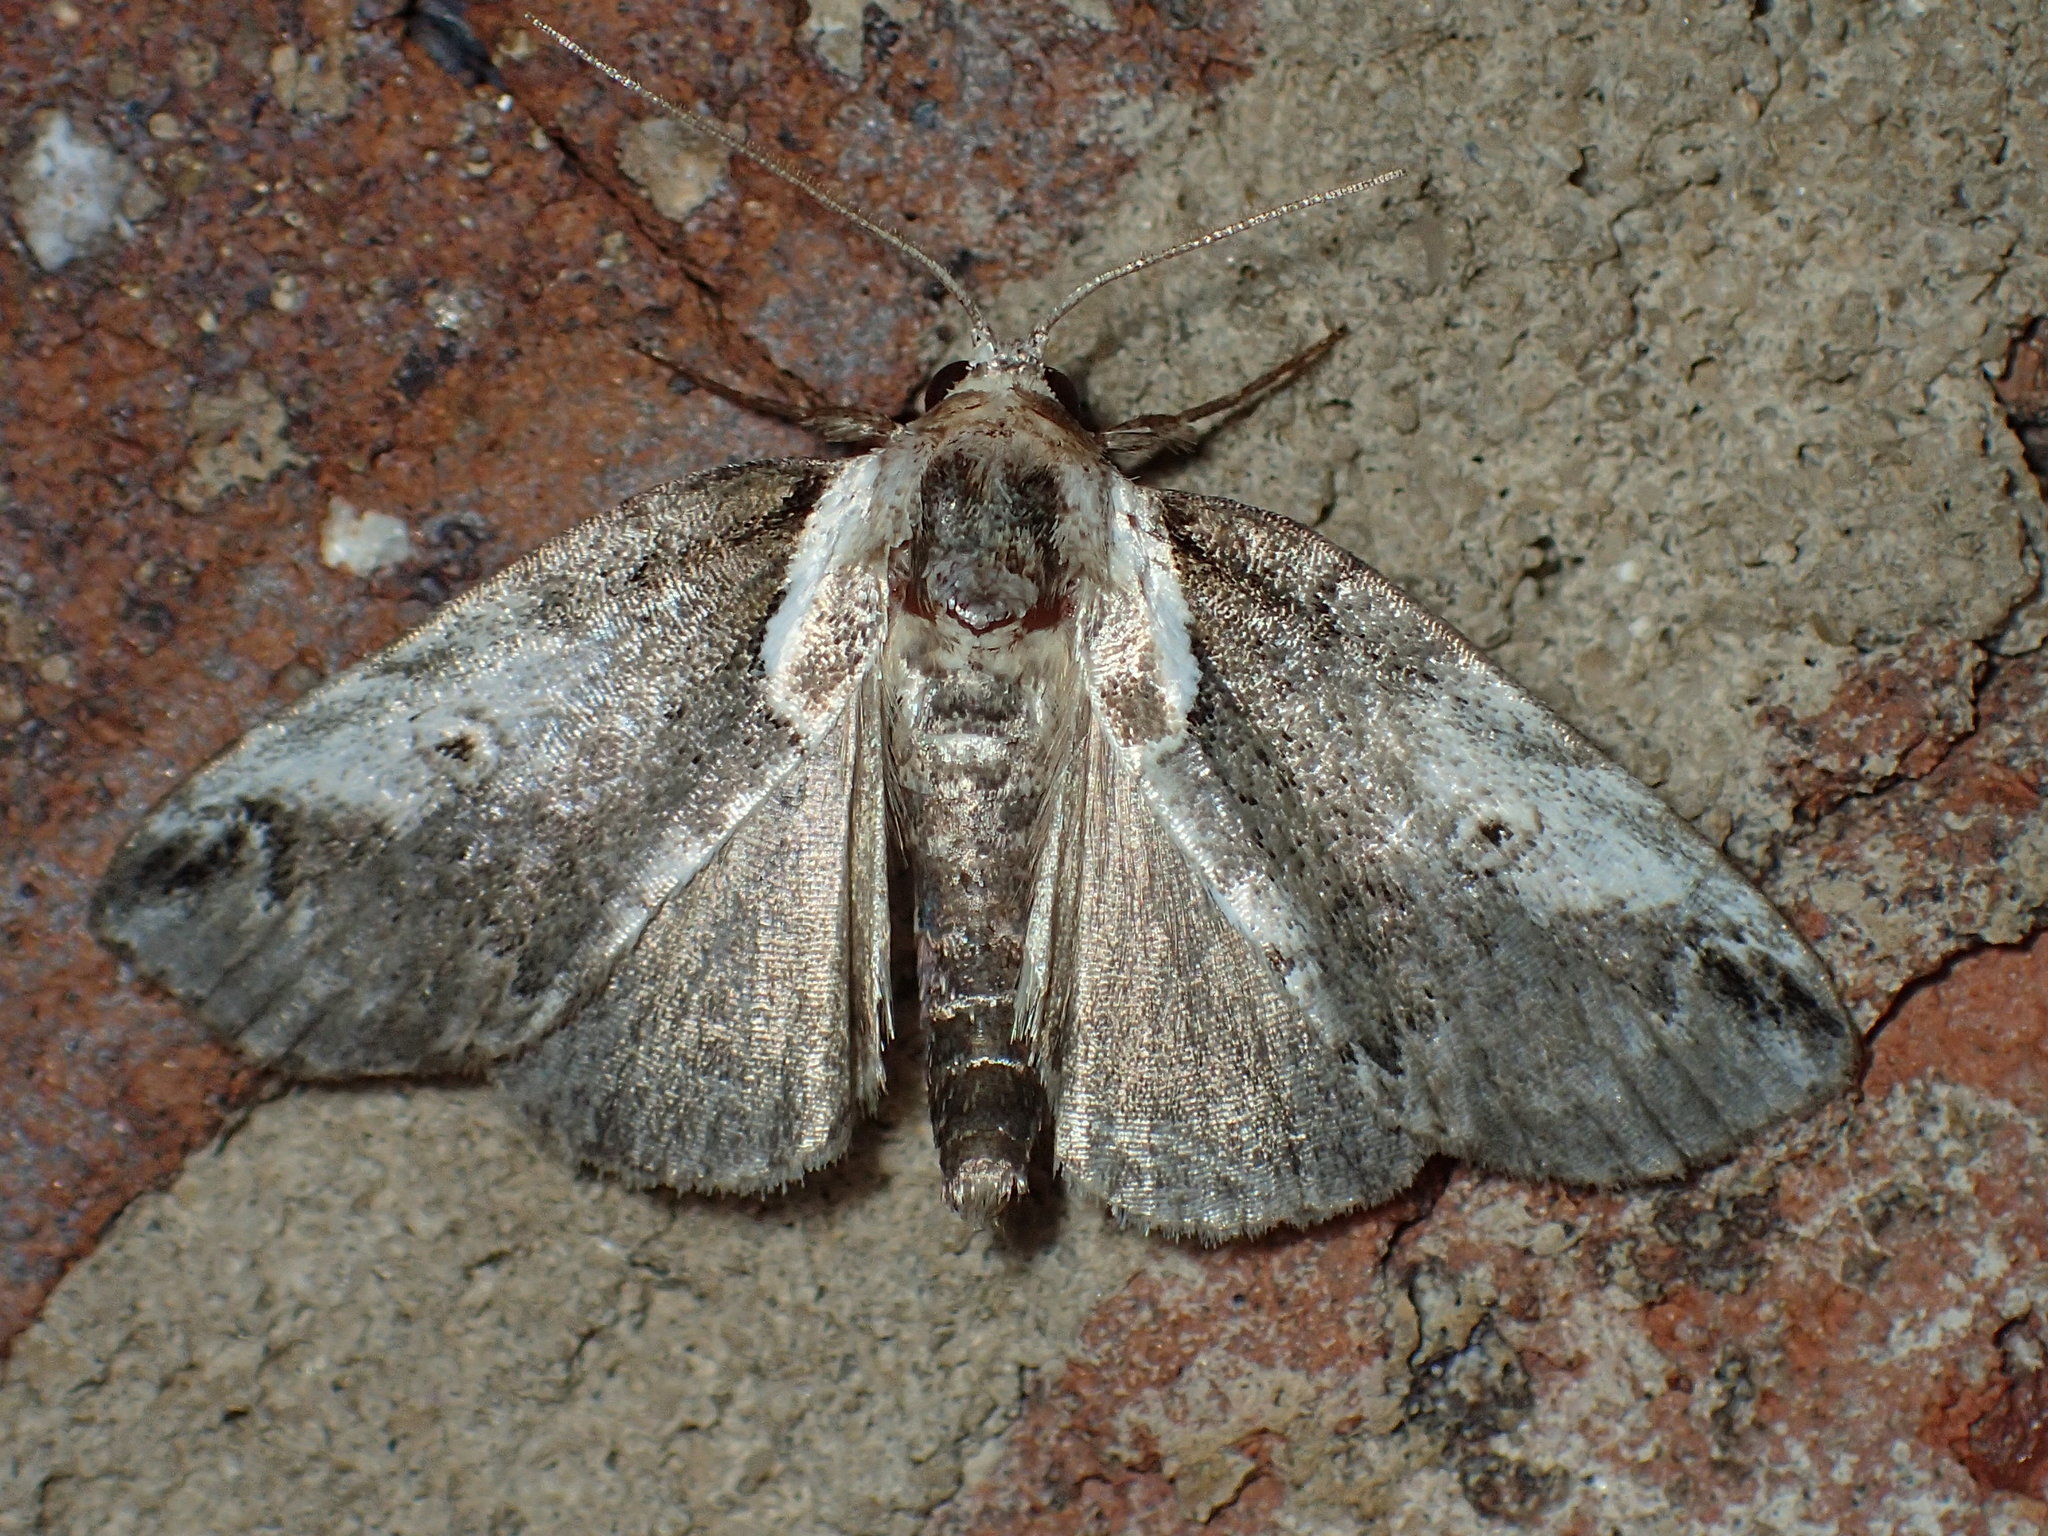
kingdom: Animalia
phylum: Arthropoda
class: Insecta
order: Lepidoptera
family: Nolidae
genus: Baileya
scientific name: Baileya ophthalmica
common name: Eyed baileya moth
